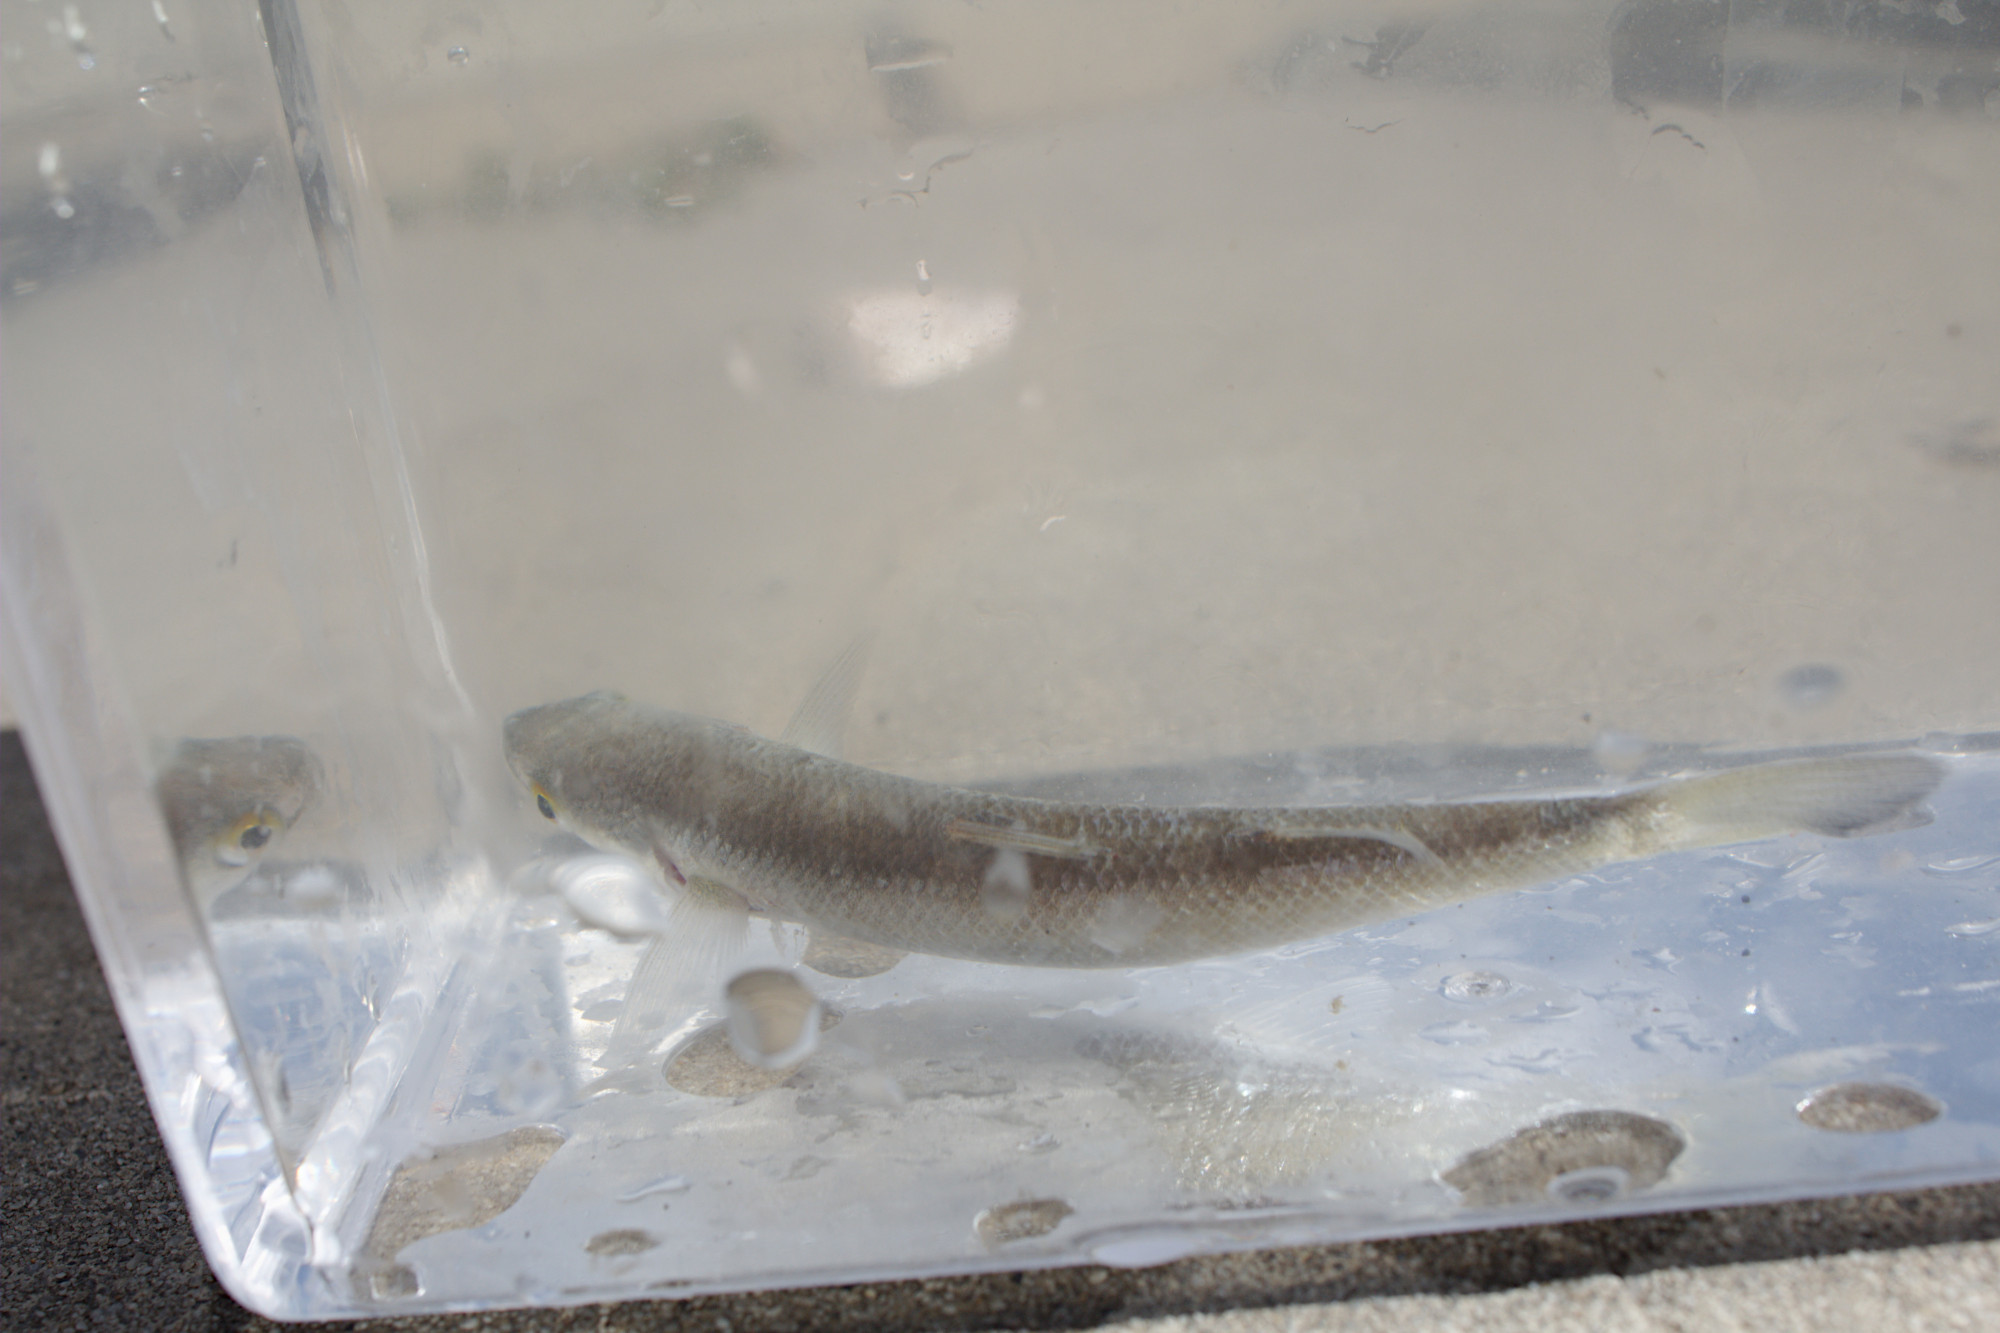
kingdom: Animalia
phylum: Chordata
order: Mugiliformes
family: Mugilidae
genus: Aldrichetta
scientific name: Aldrichetta forsteri
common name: Yellow-eye mullet
